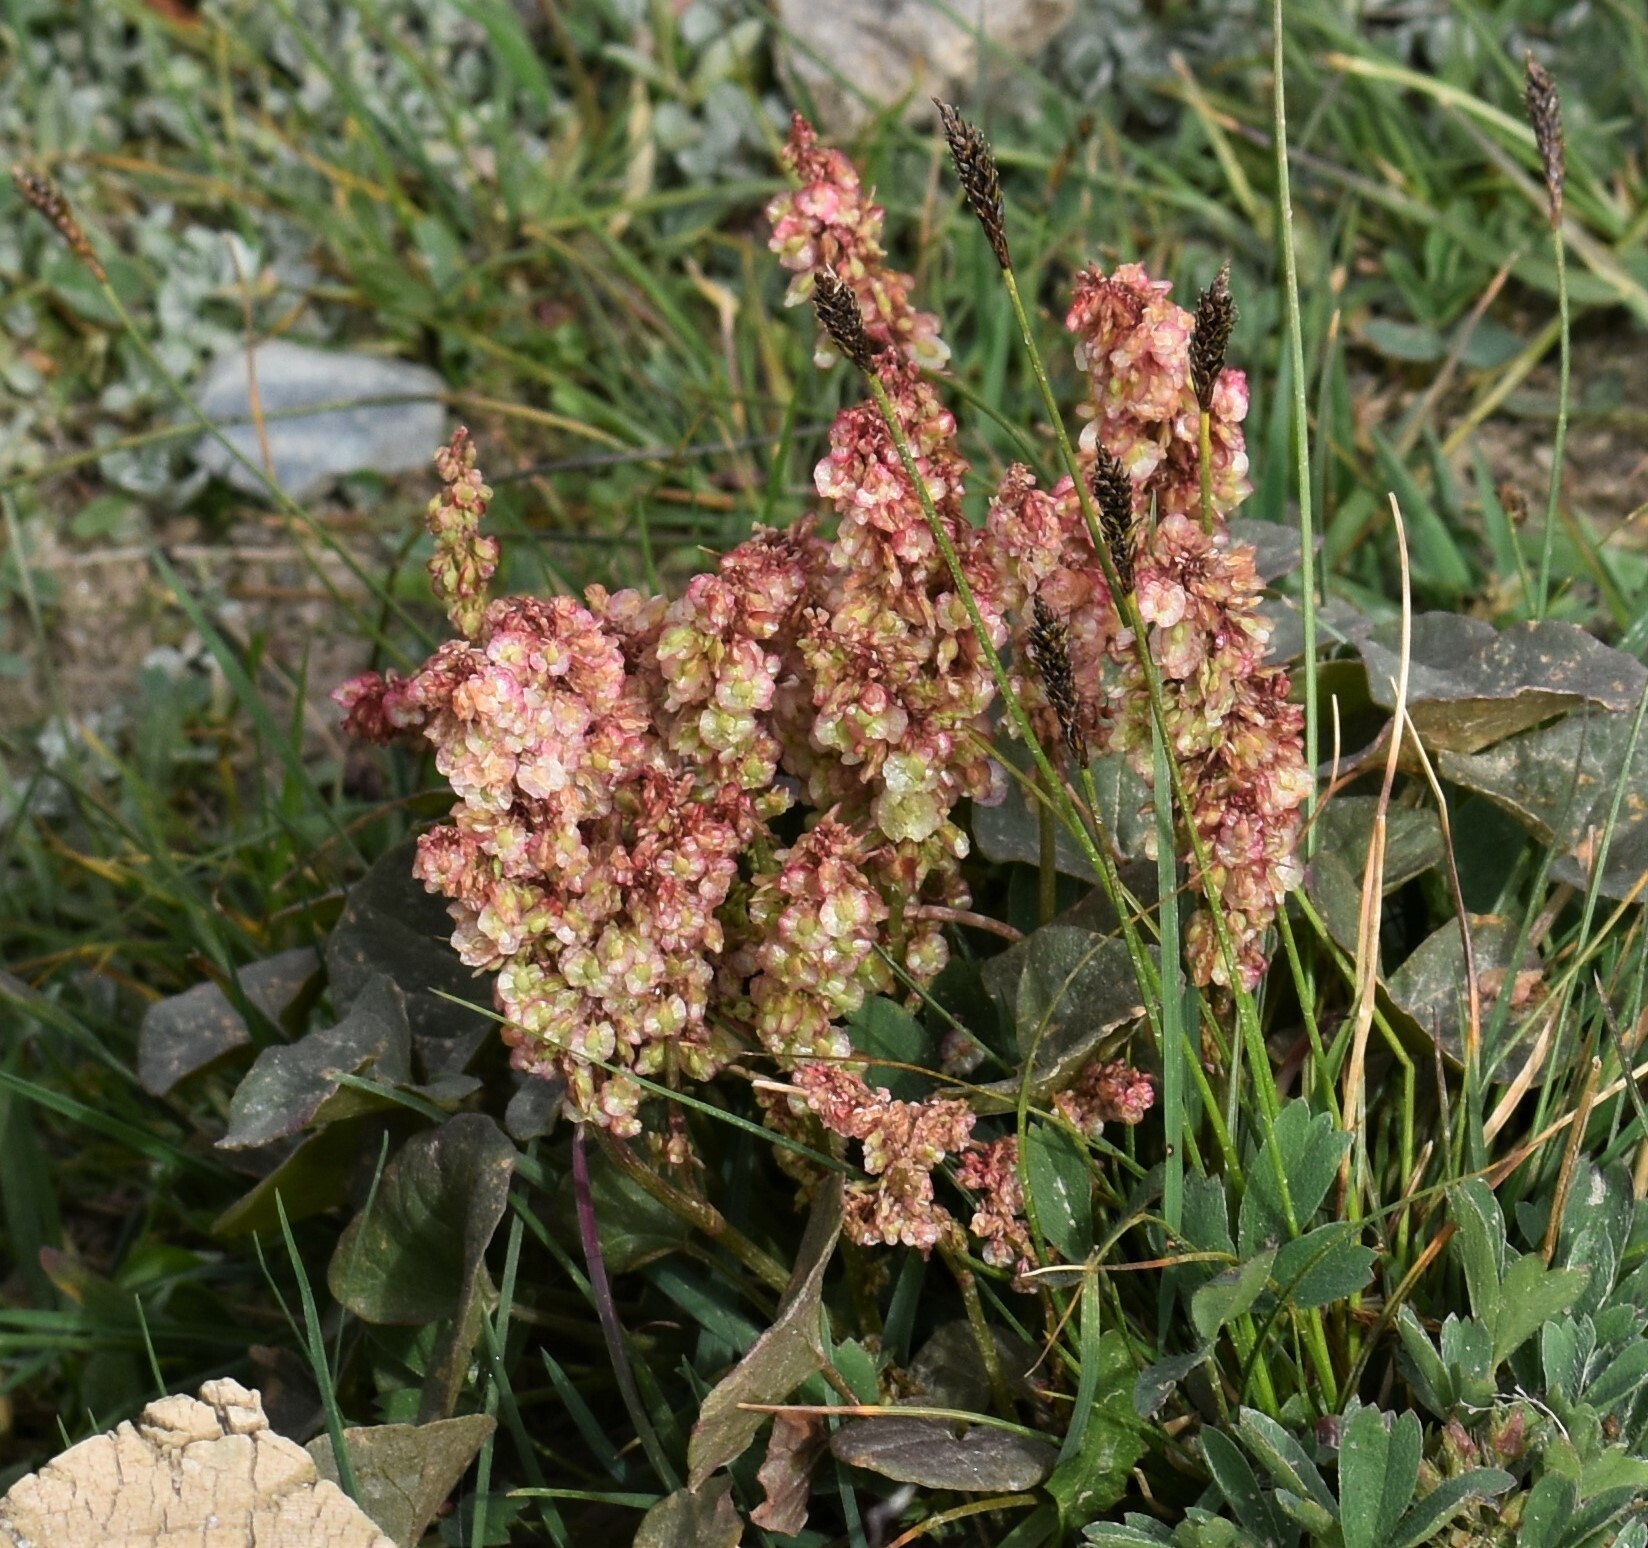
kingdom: Plantae
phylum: Tracheophyta
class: Magnoliopsida
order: Caryophyllales
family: Polygonaceae
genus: Oxyria
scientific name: Oxyria digyna
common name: Alpine mountain-sorrel
